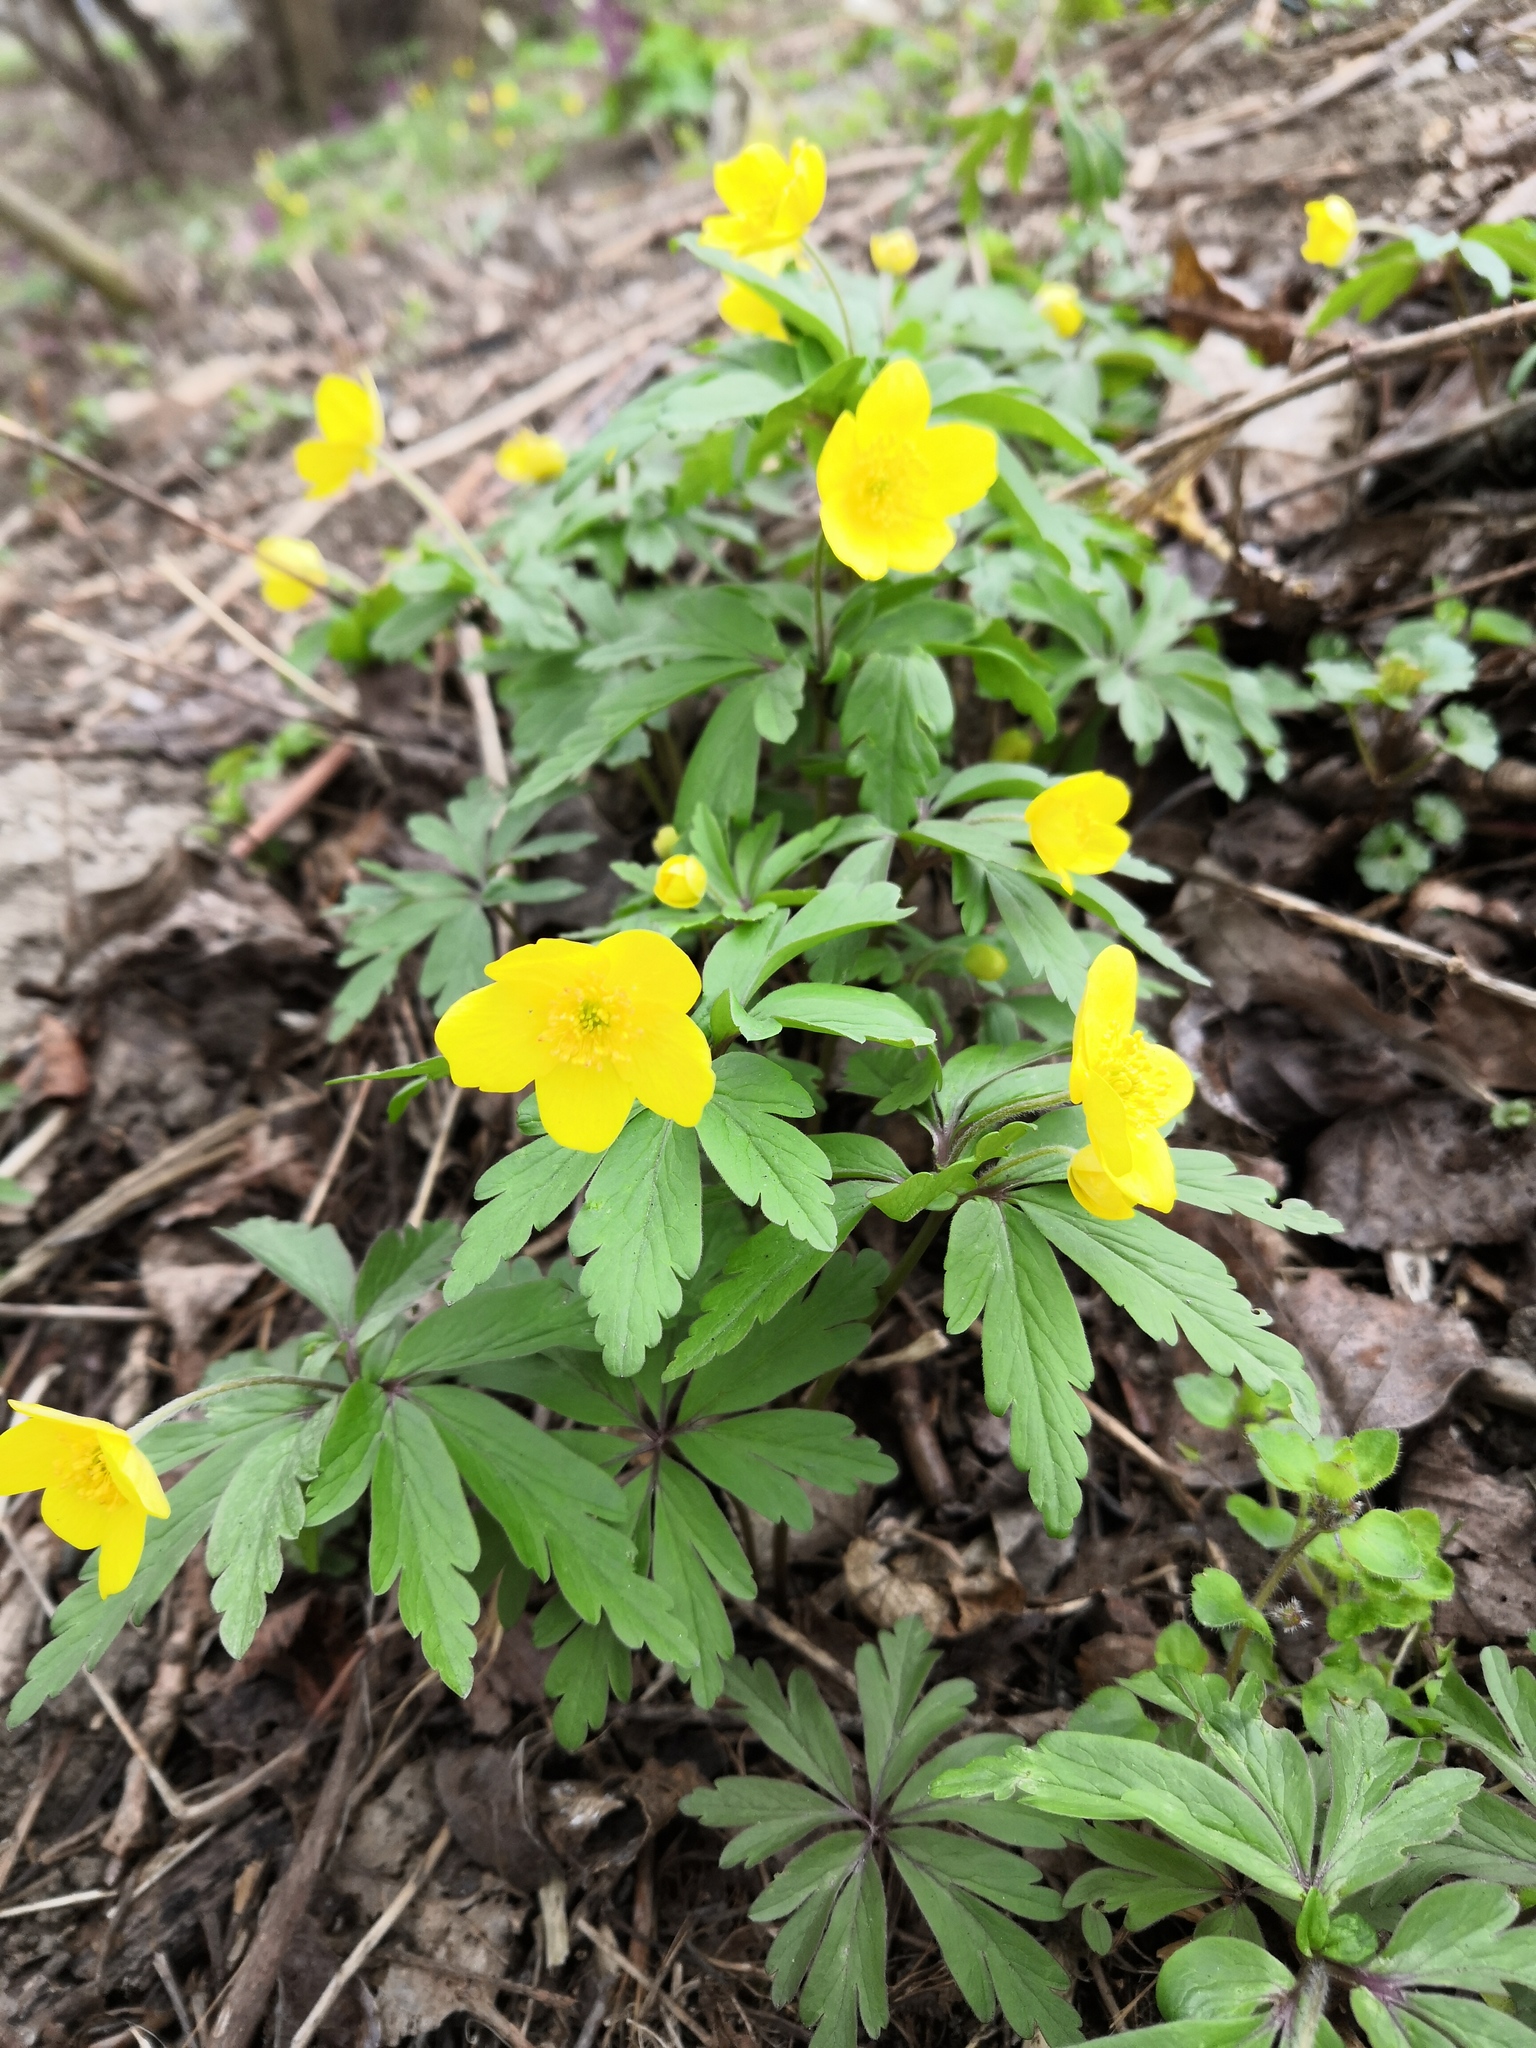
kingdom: Plantae
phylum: Tracheophyta
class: Magnoliopsida
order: Ranunculales
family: Ranunculaceae
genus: Anemone
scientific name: Anemone ranunculoides
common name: Yellow anemone
